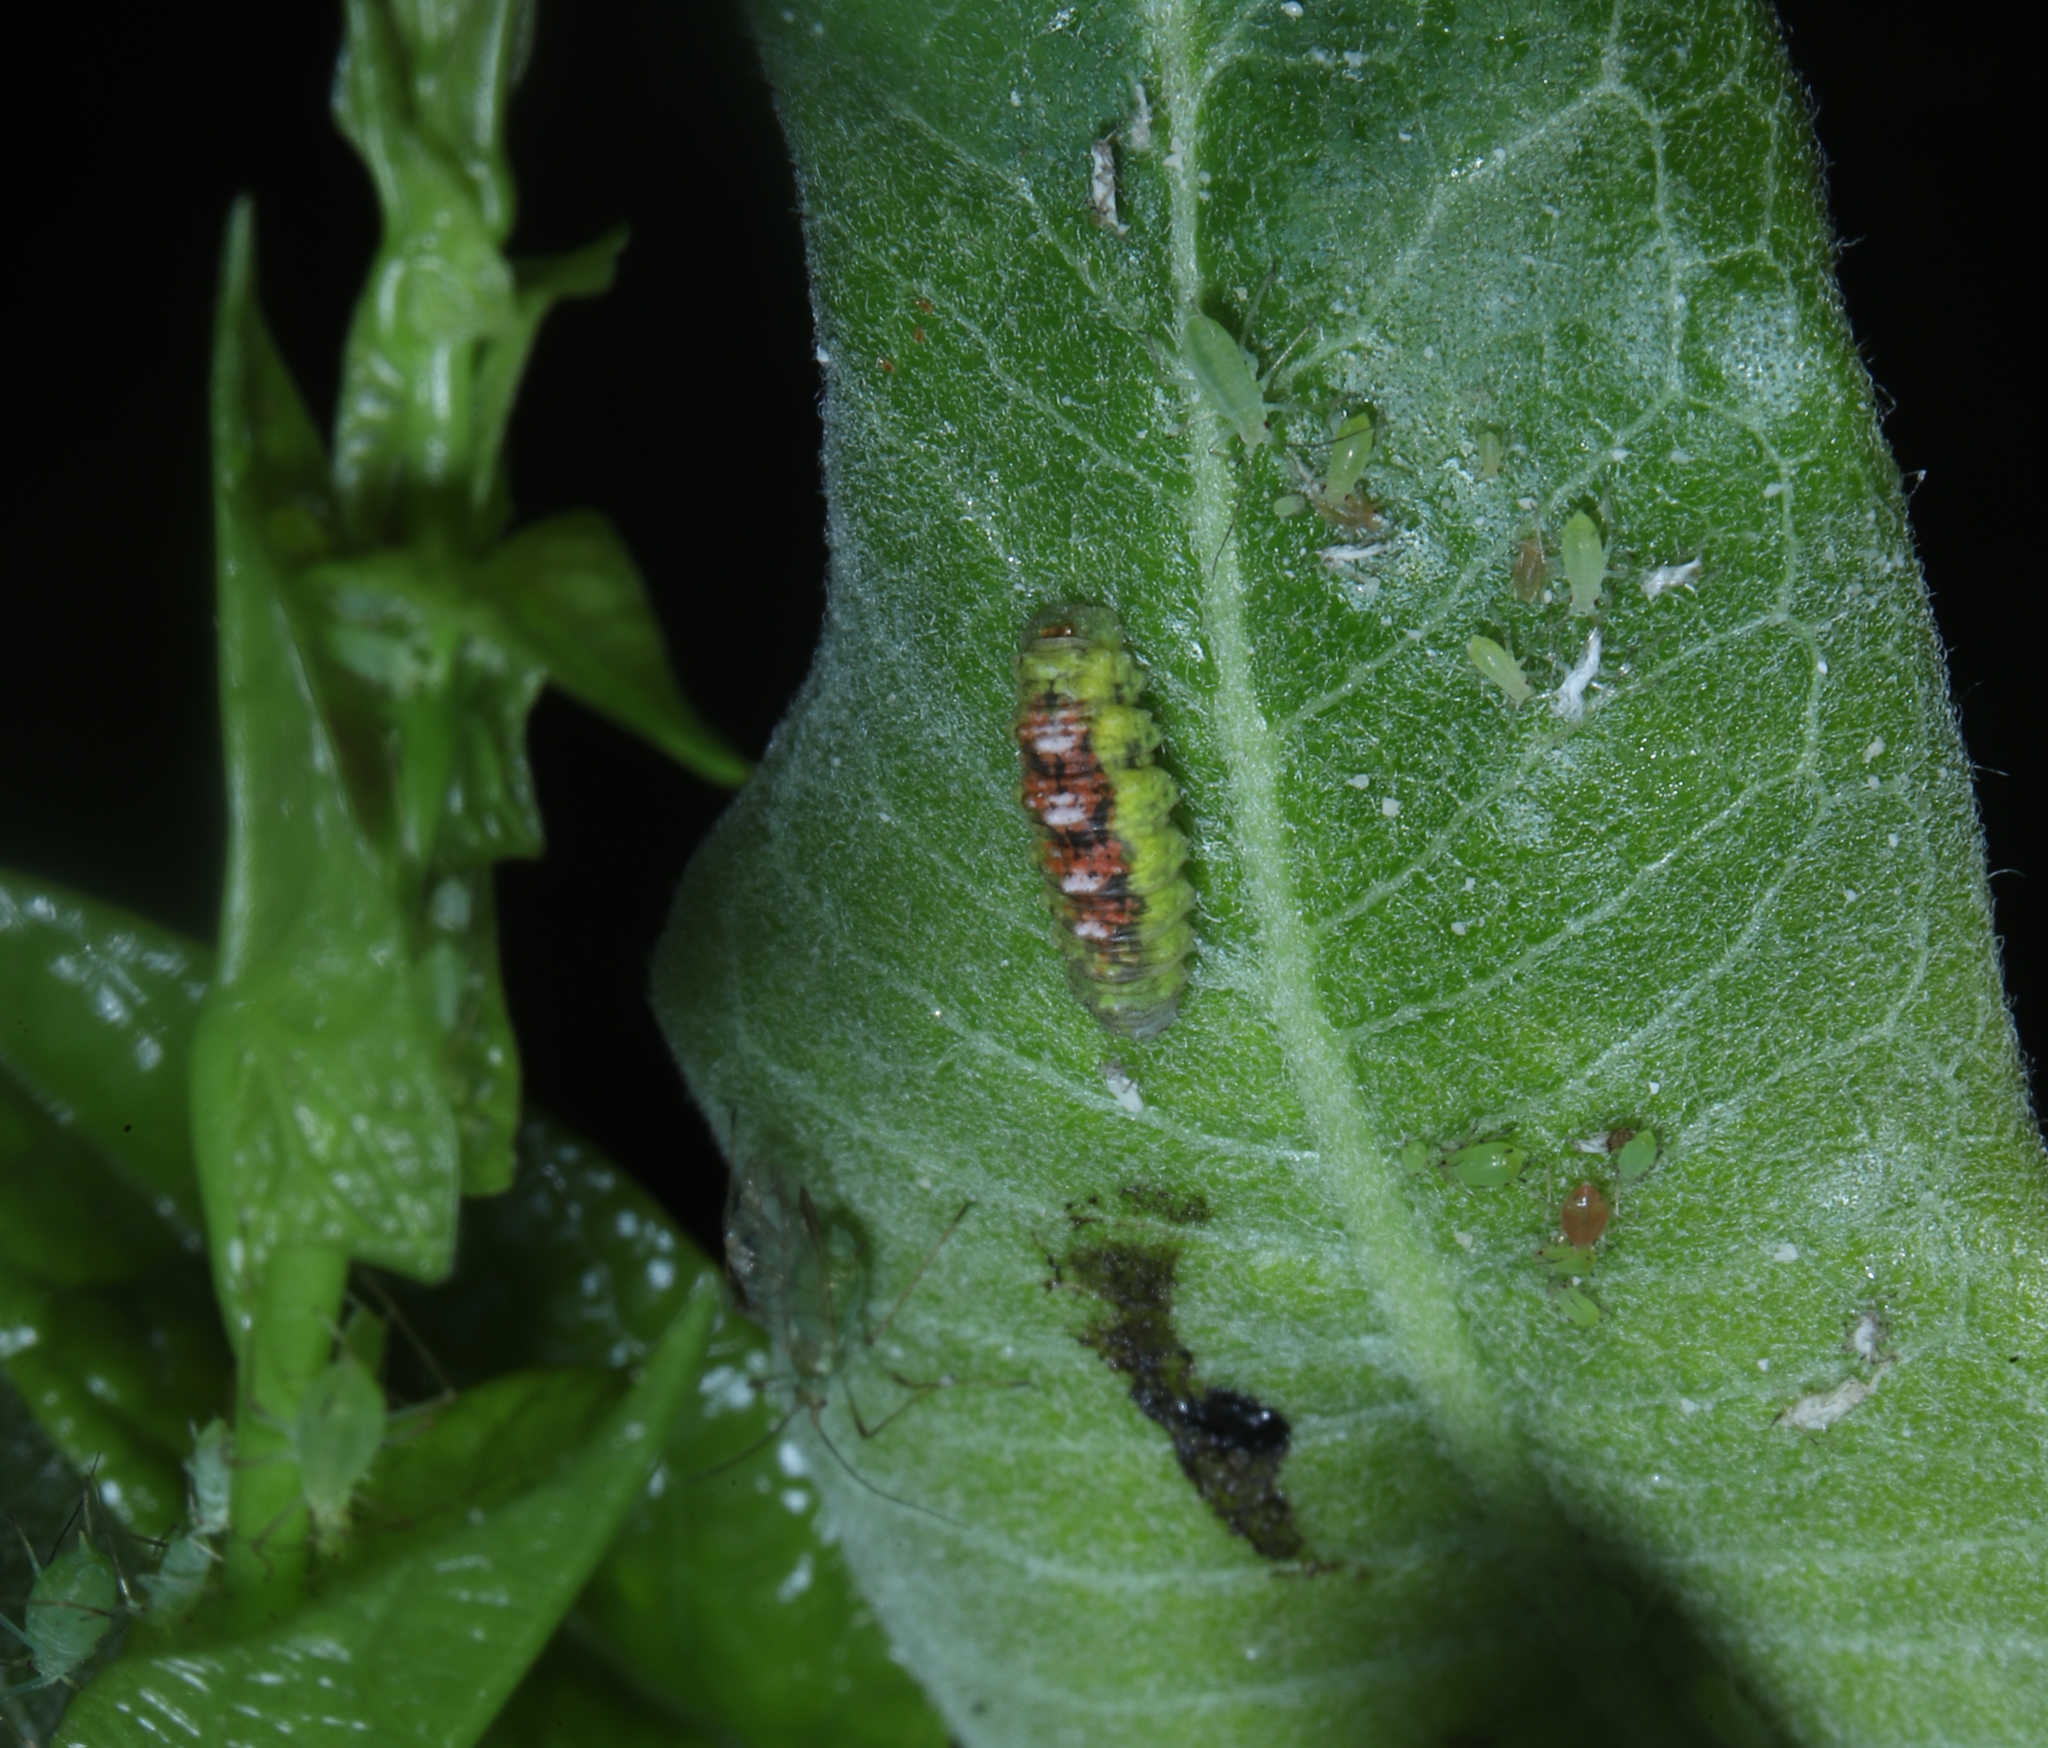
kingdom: Animalia
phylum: Arthropoda
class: Insecta
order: Diptera
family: Syrphidae
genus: Eupeodes
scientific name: Eupeodes pomus
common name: Short-tailed aphideater
